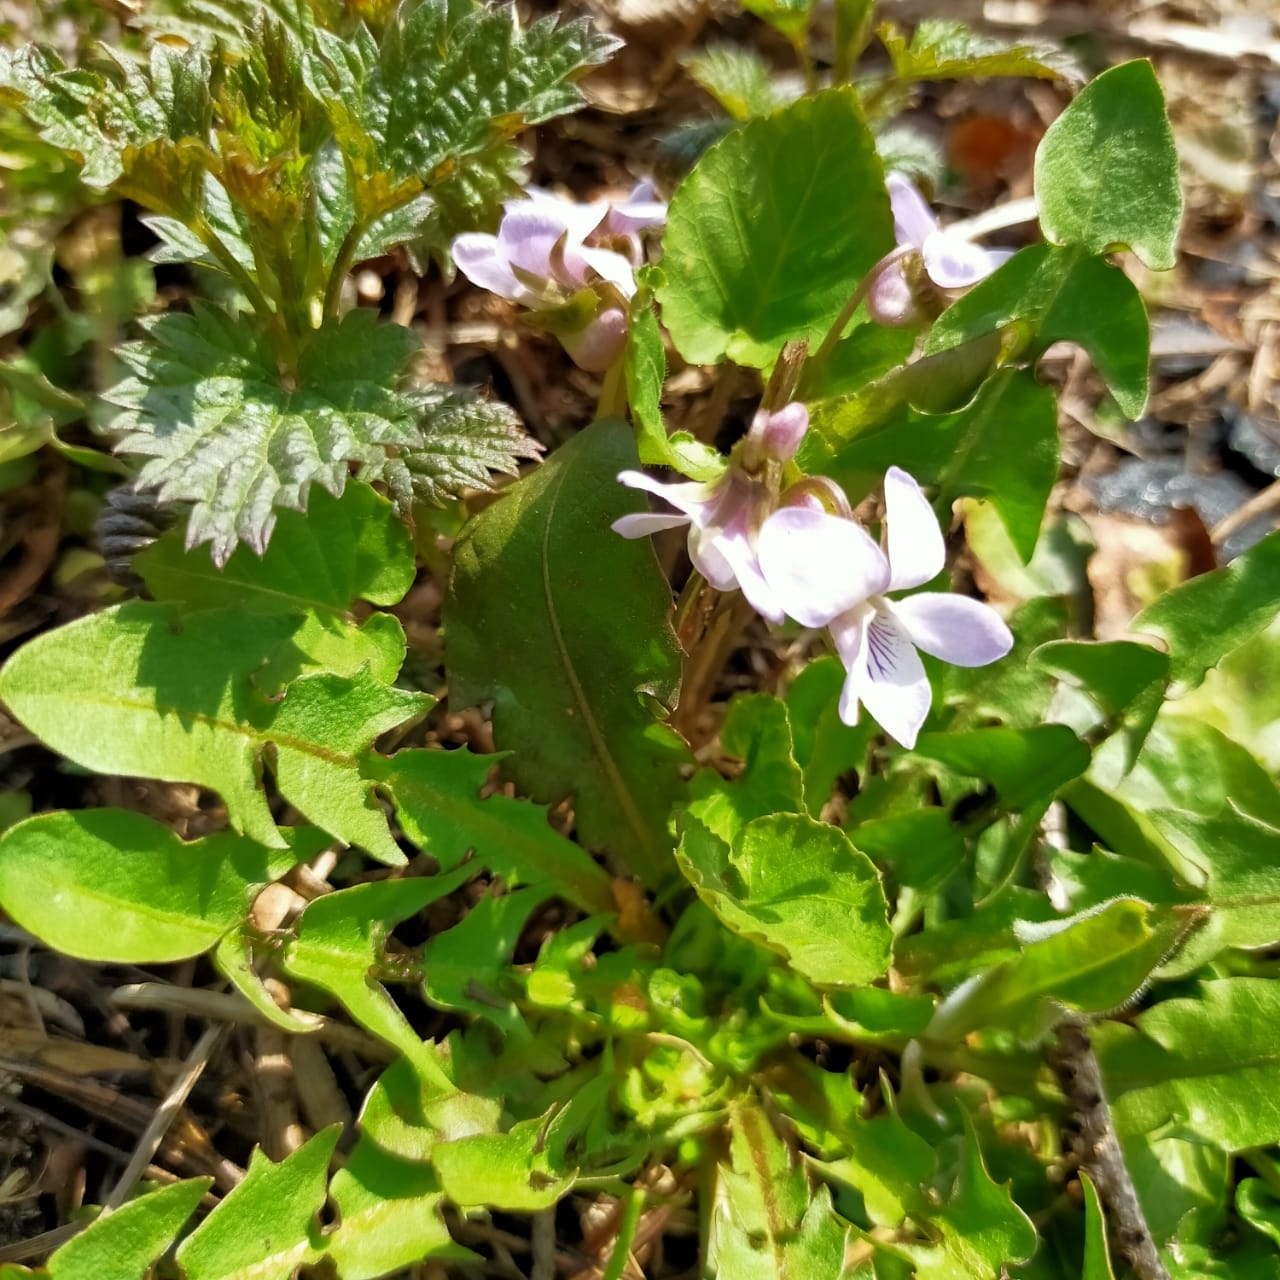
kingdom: Plantae
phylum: Tracheophyta
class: Magnoliopsida
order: Malpighiales
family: Violaceae
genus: Viola
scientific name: Viola selkirkii
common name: Selkirk's violet
